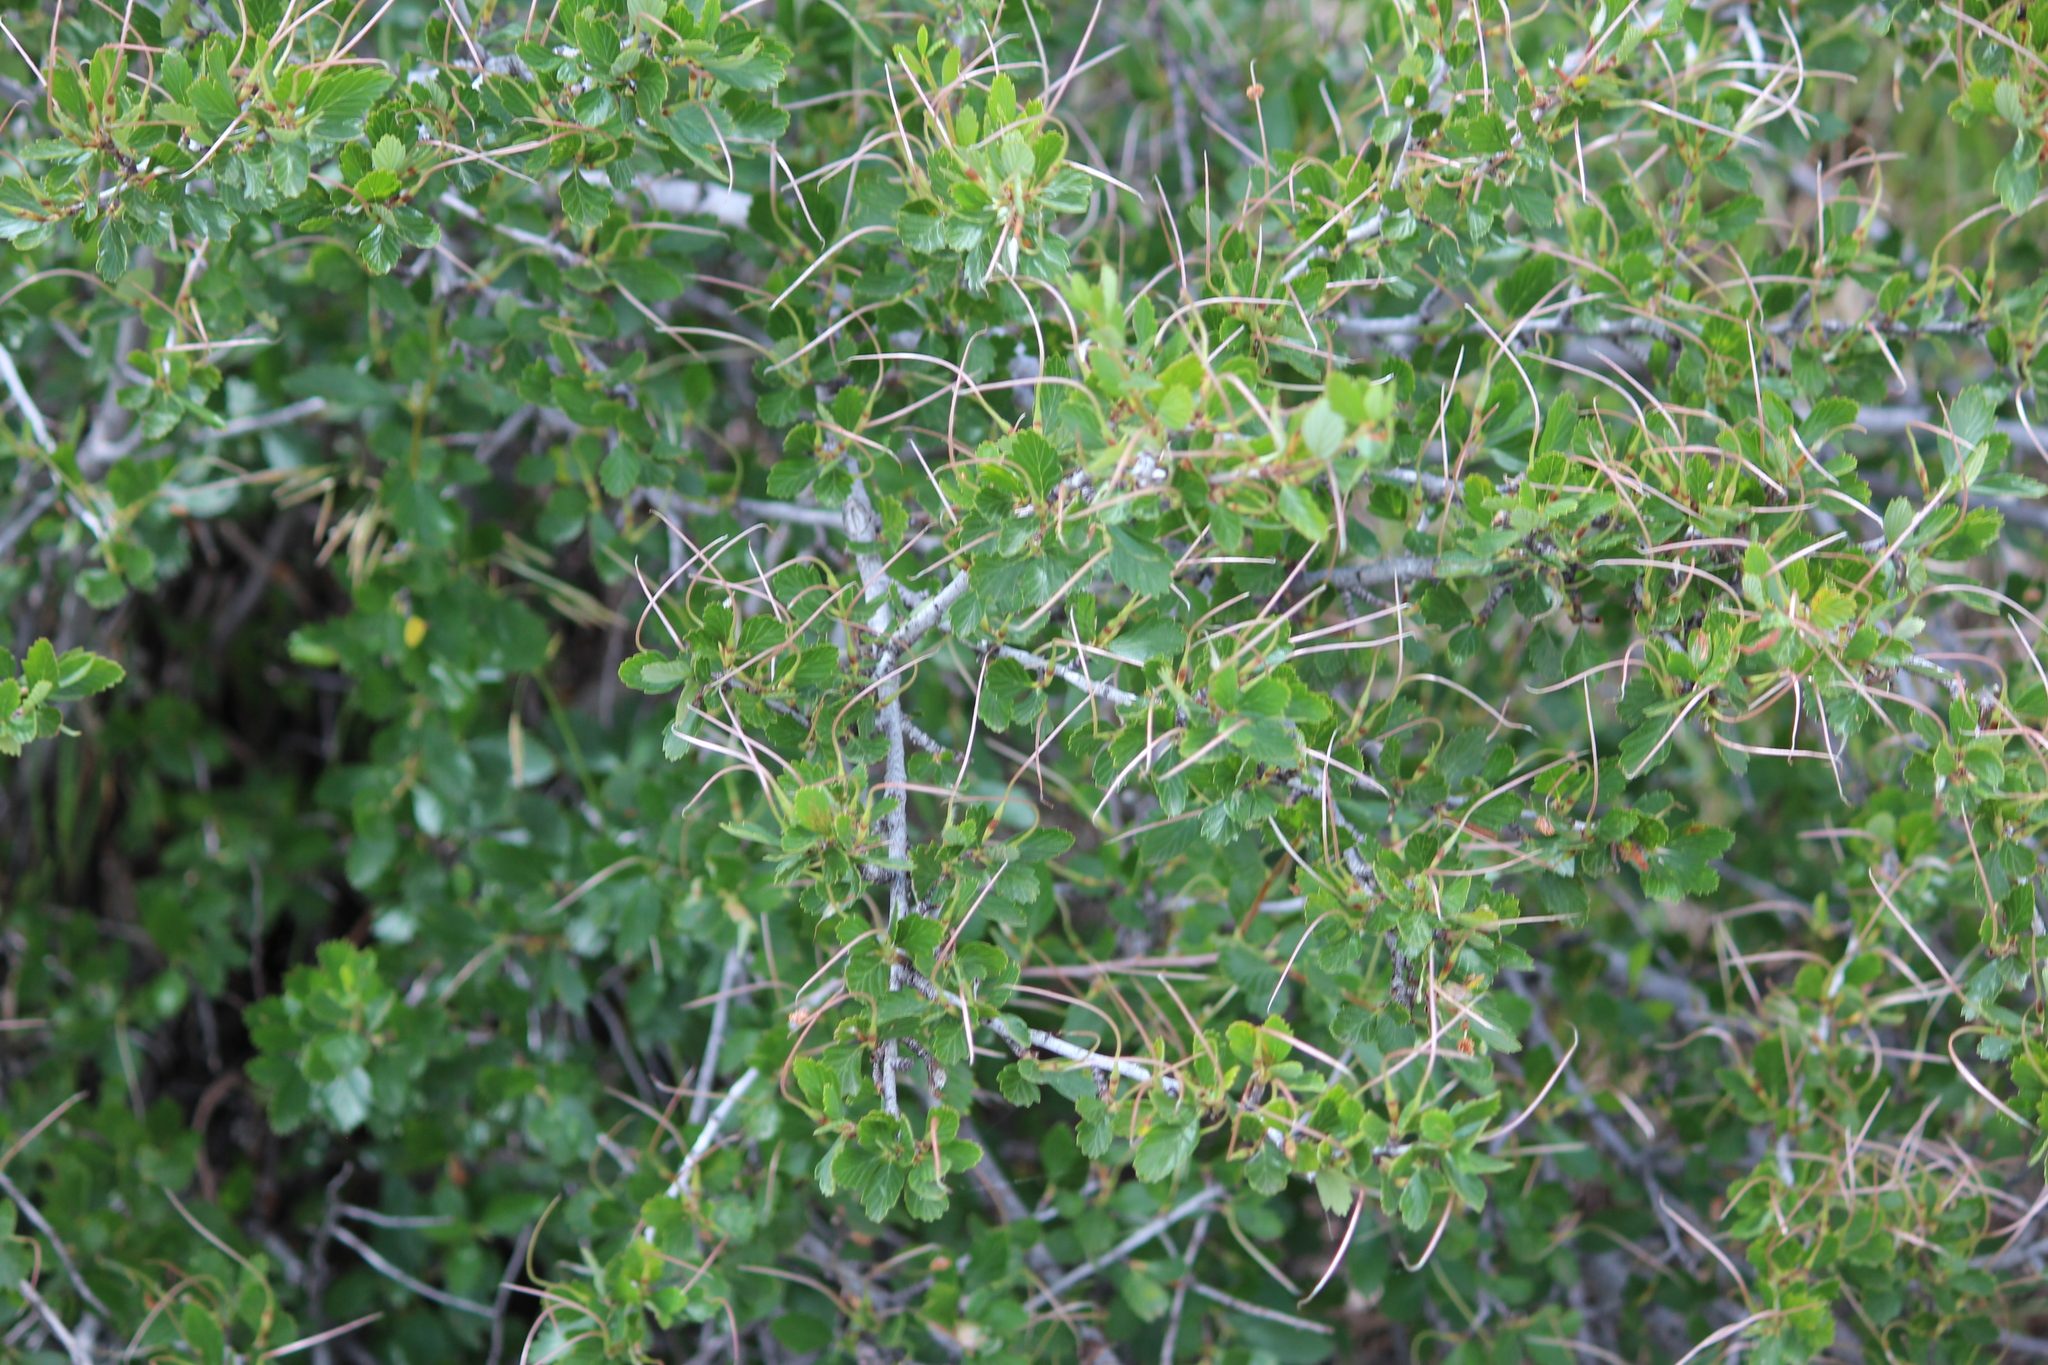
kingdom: Plantae
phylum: Tracheophyta
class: Magnoliopsida
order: Rosales
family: Rosaceae
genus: Cercocarpus
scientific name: Cercocarpus montanus
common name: Alder-leaf cercocarpus
